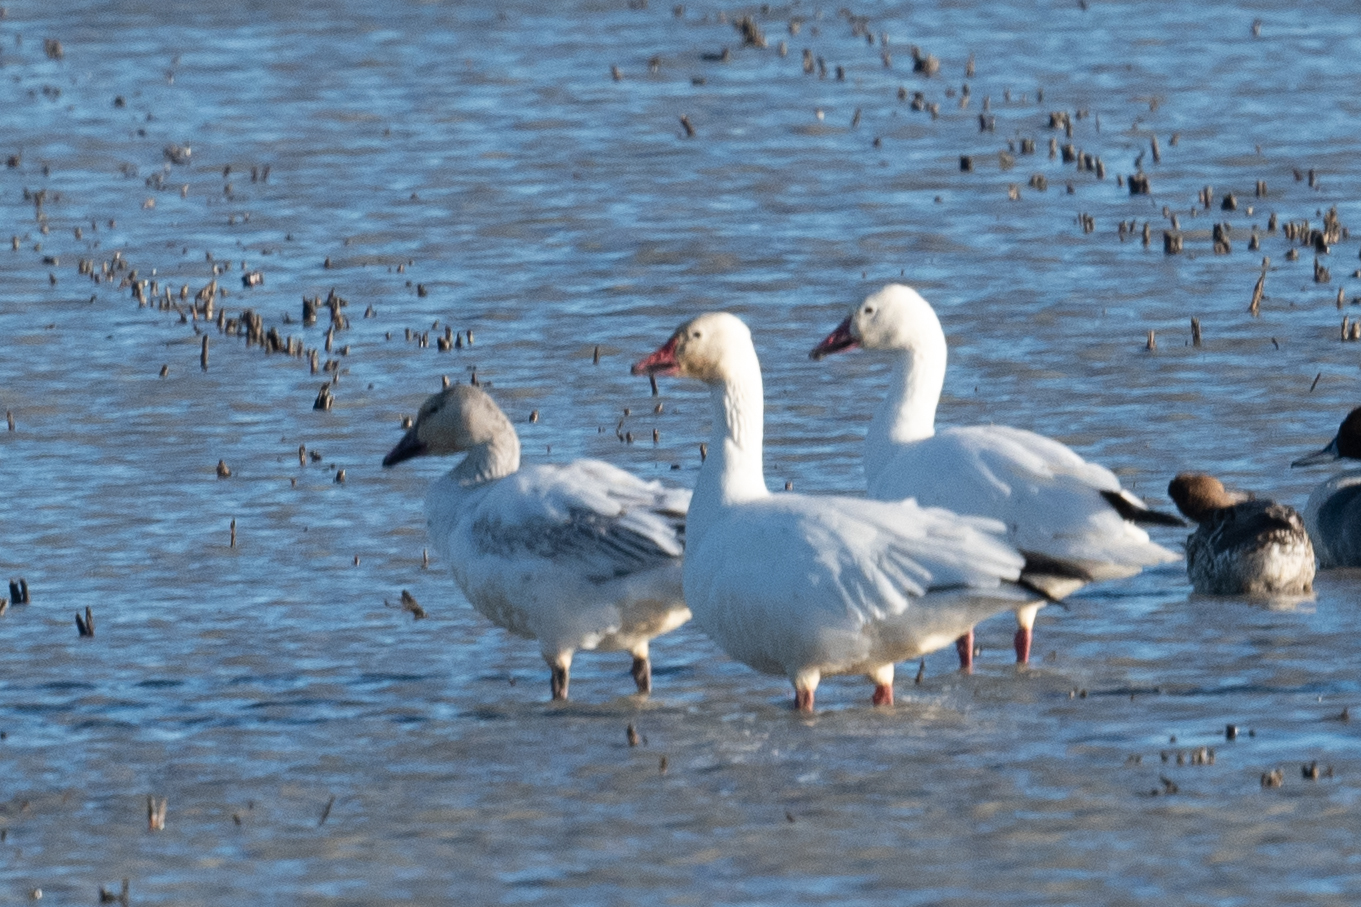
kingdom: Animalia
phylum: Chordata
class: Aves
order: Anseriformes
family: Anatidae
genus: Anser
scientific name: Anser caerulescens
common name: Snow goose
